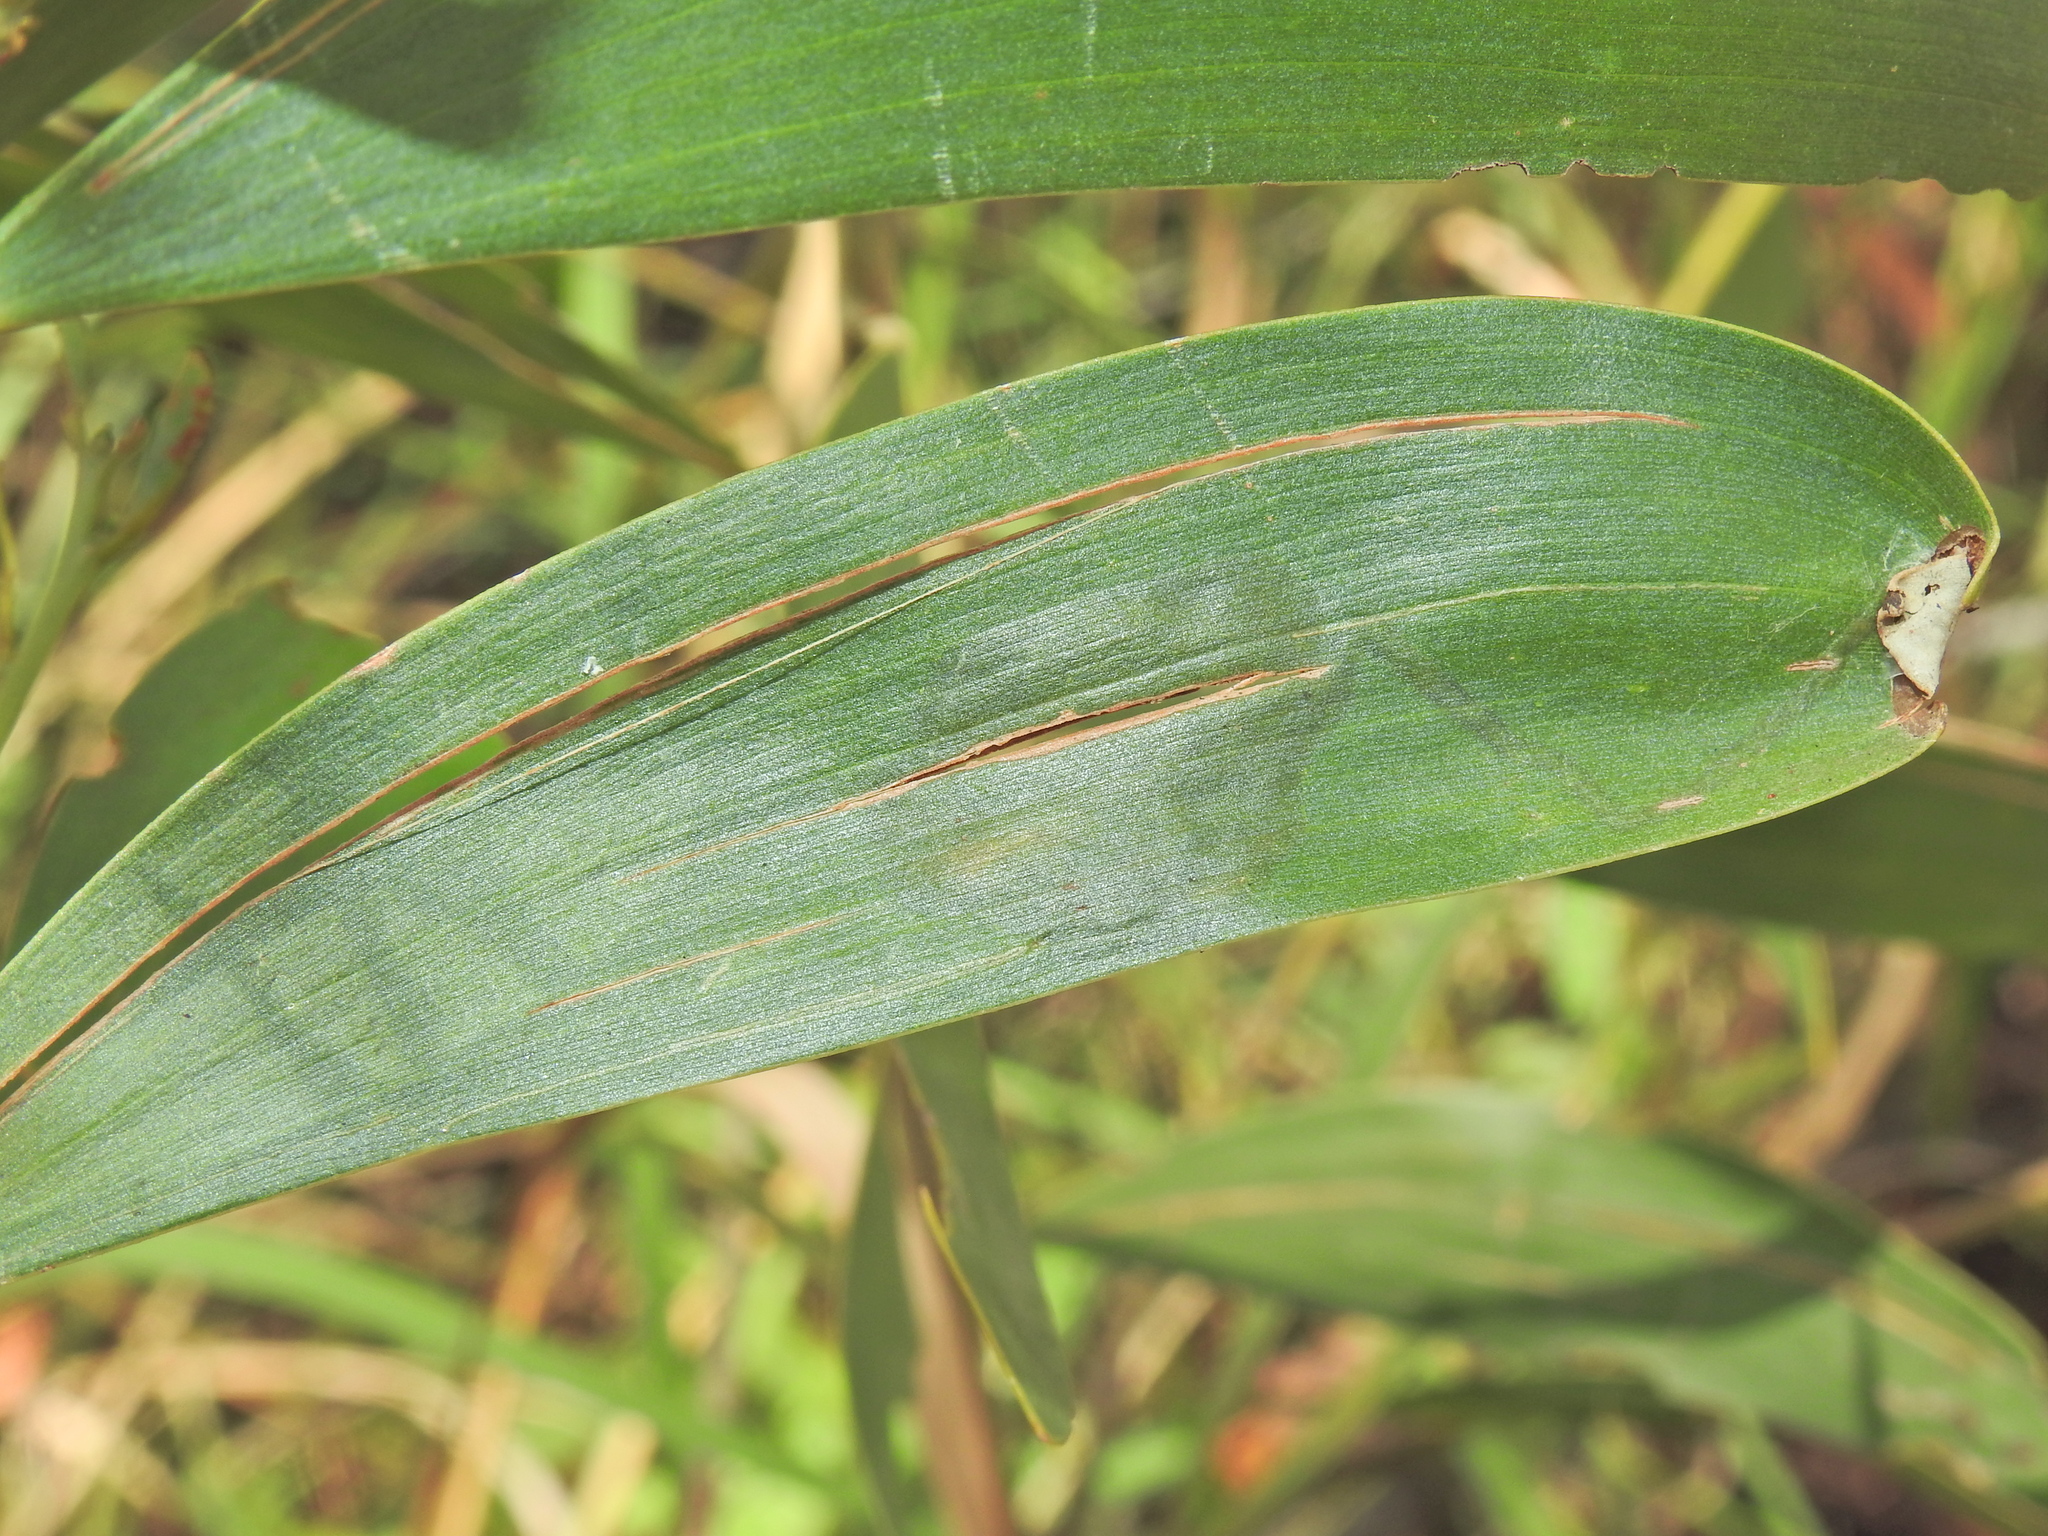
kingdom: Animalia
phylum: Arthropoda
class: Insecta
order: Lepidoptera
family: Gracillariidae
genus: Acrocercops
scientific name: Acrocercops didymella
